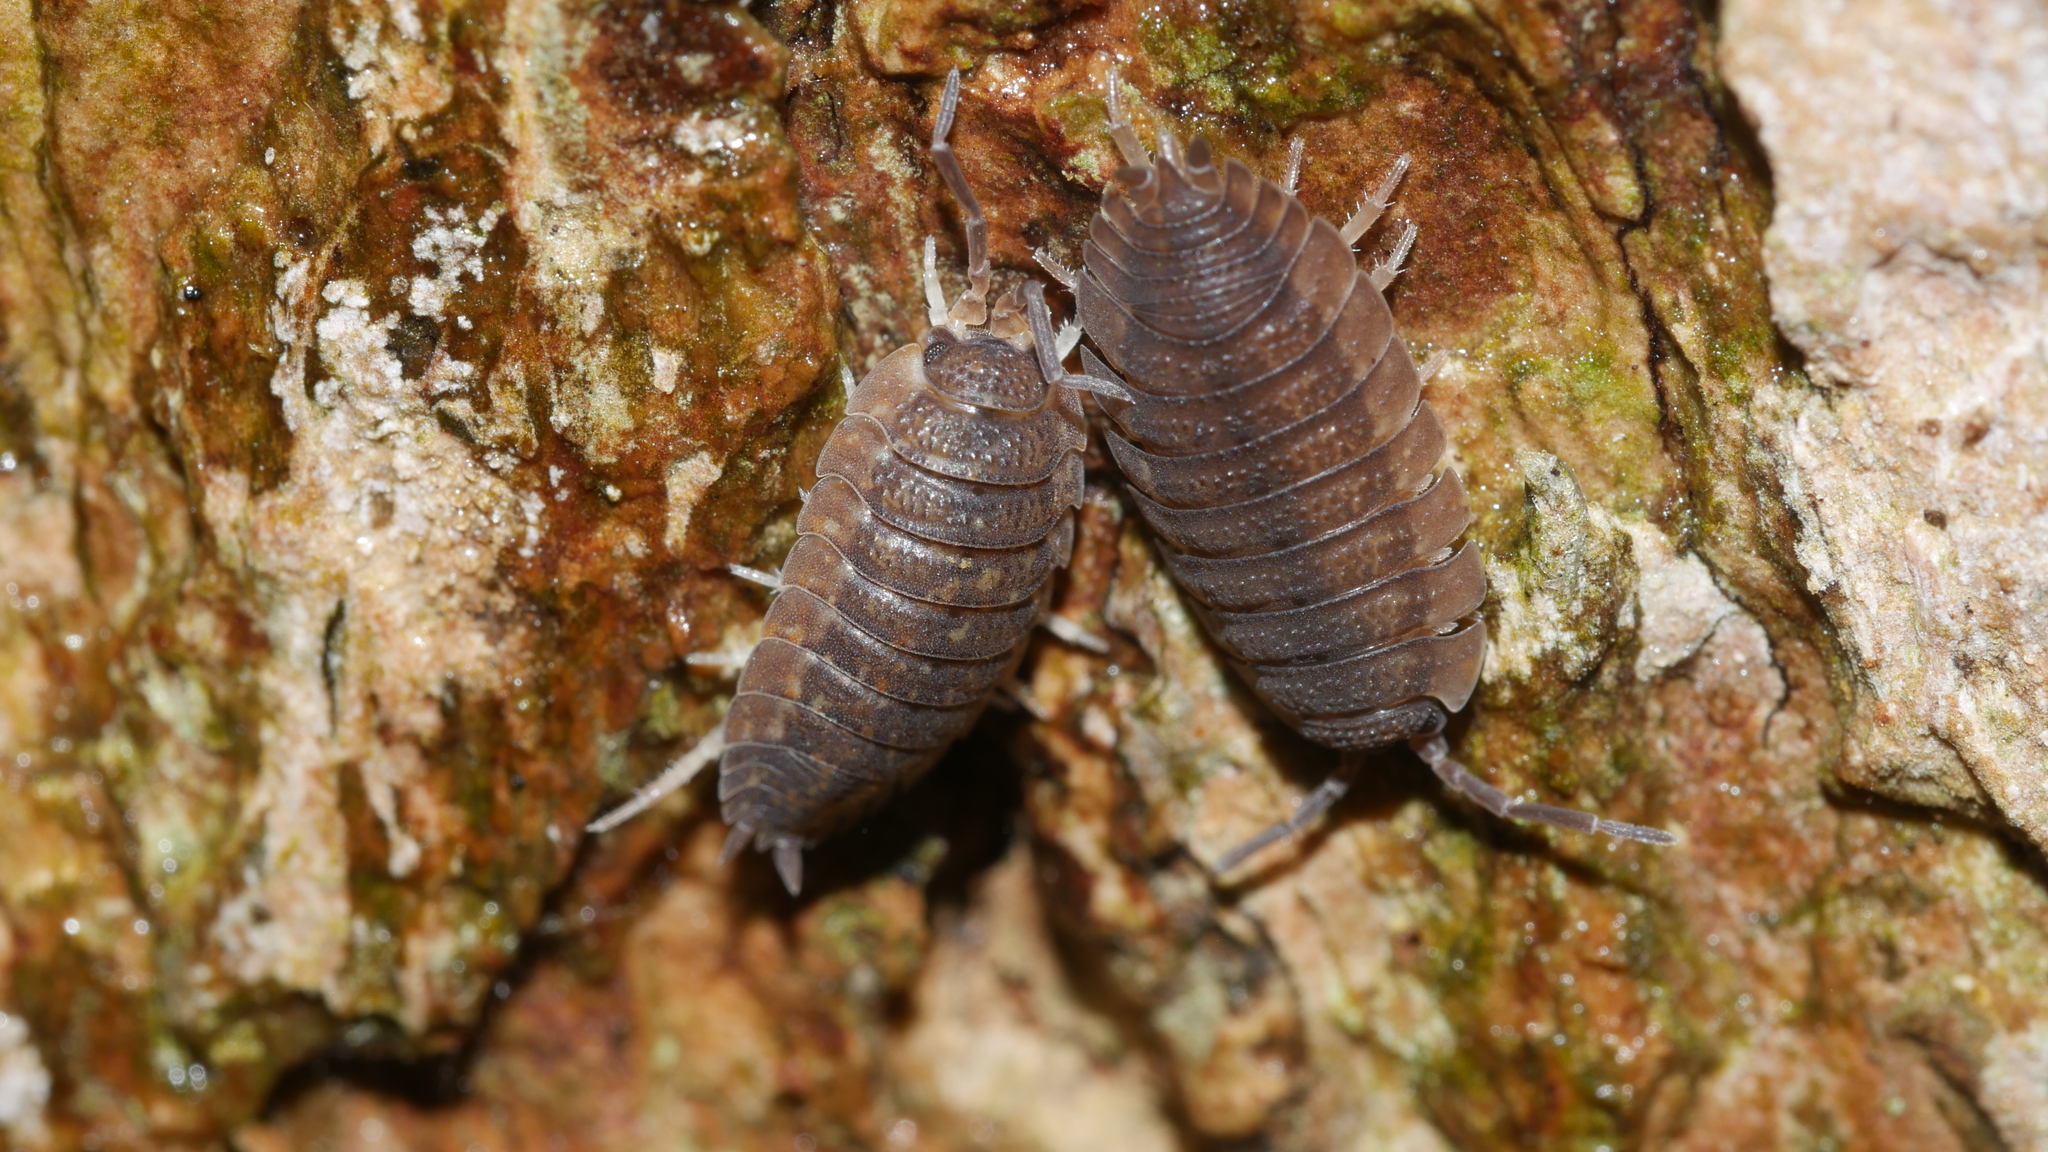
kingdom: Animalia
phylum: Arthropoda
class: Malacostraca
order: Isopoda
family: Porcellionidae
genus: Porcellio
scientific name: Porcellio scaber
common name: Common rough woodlouse
